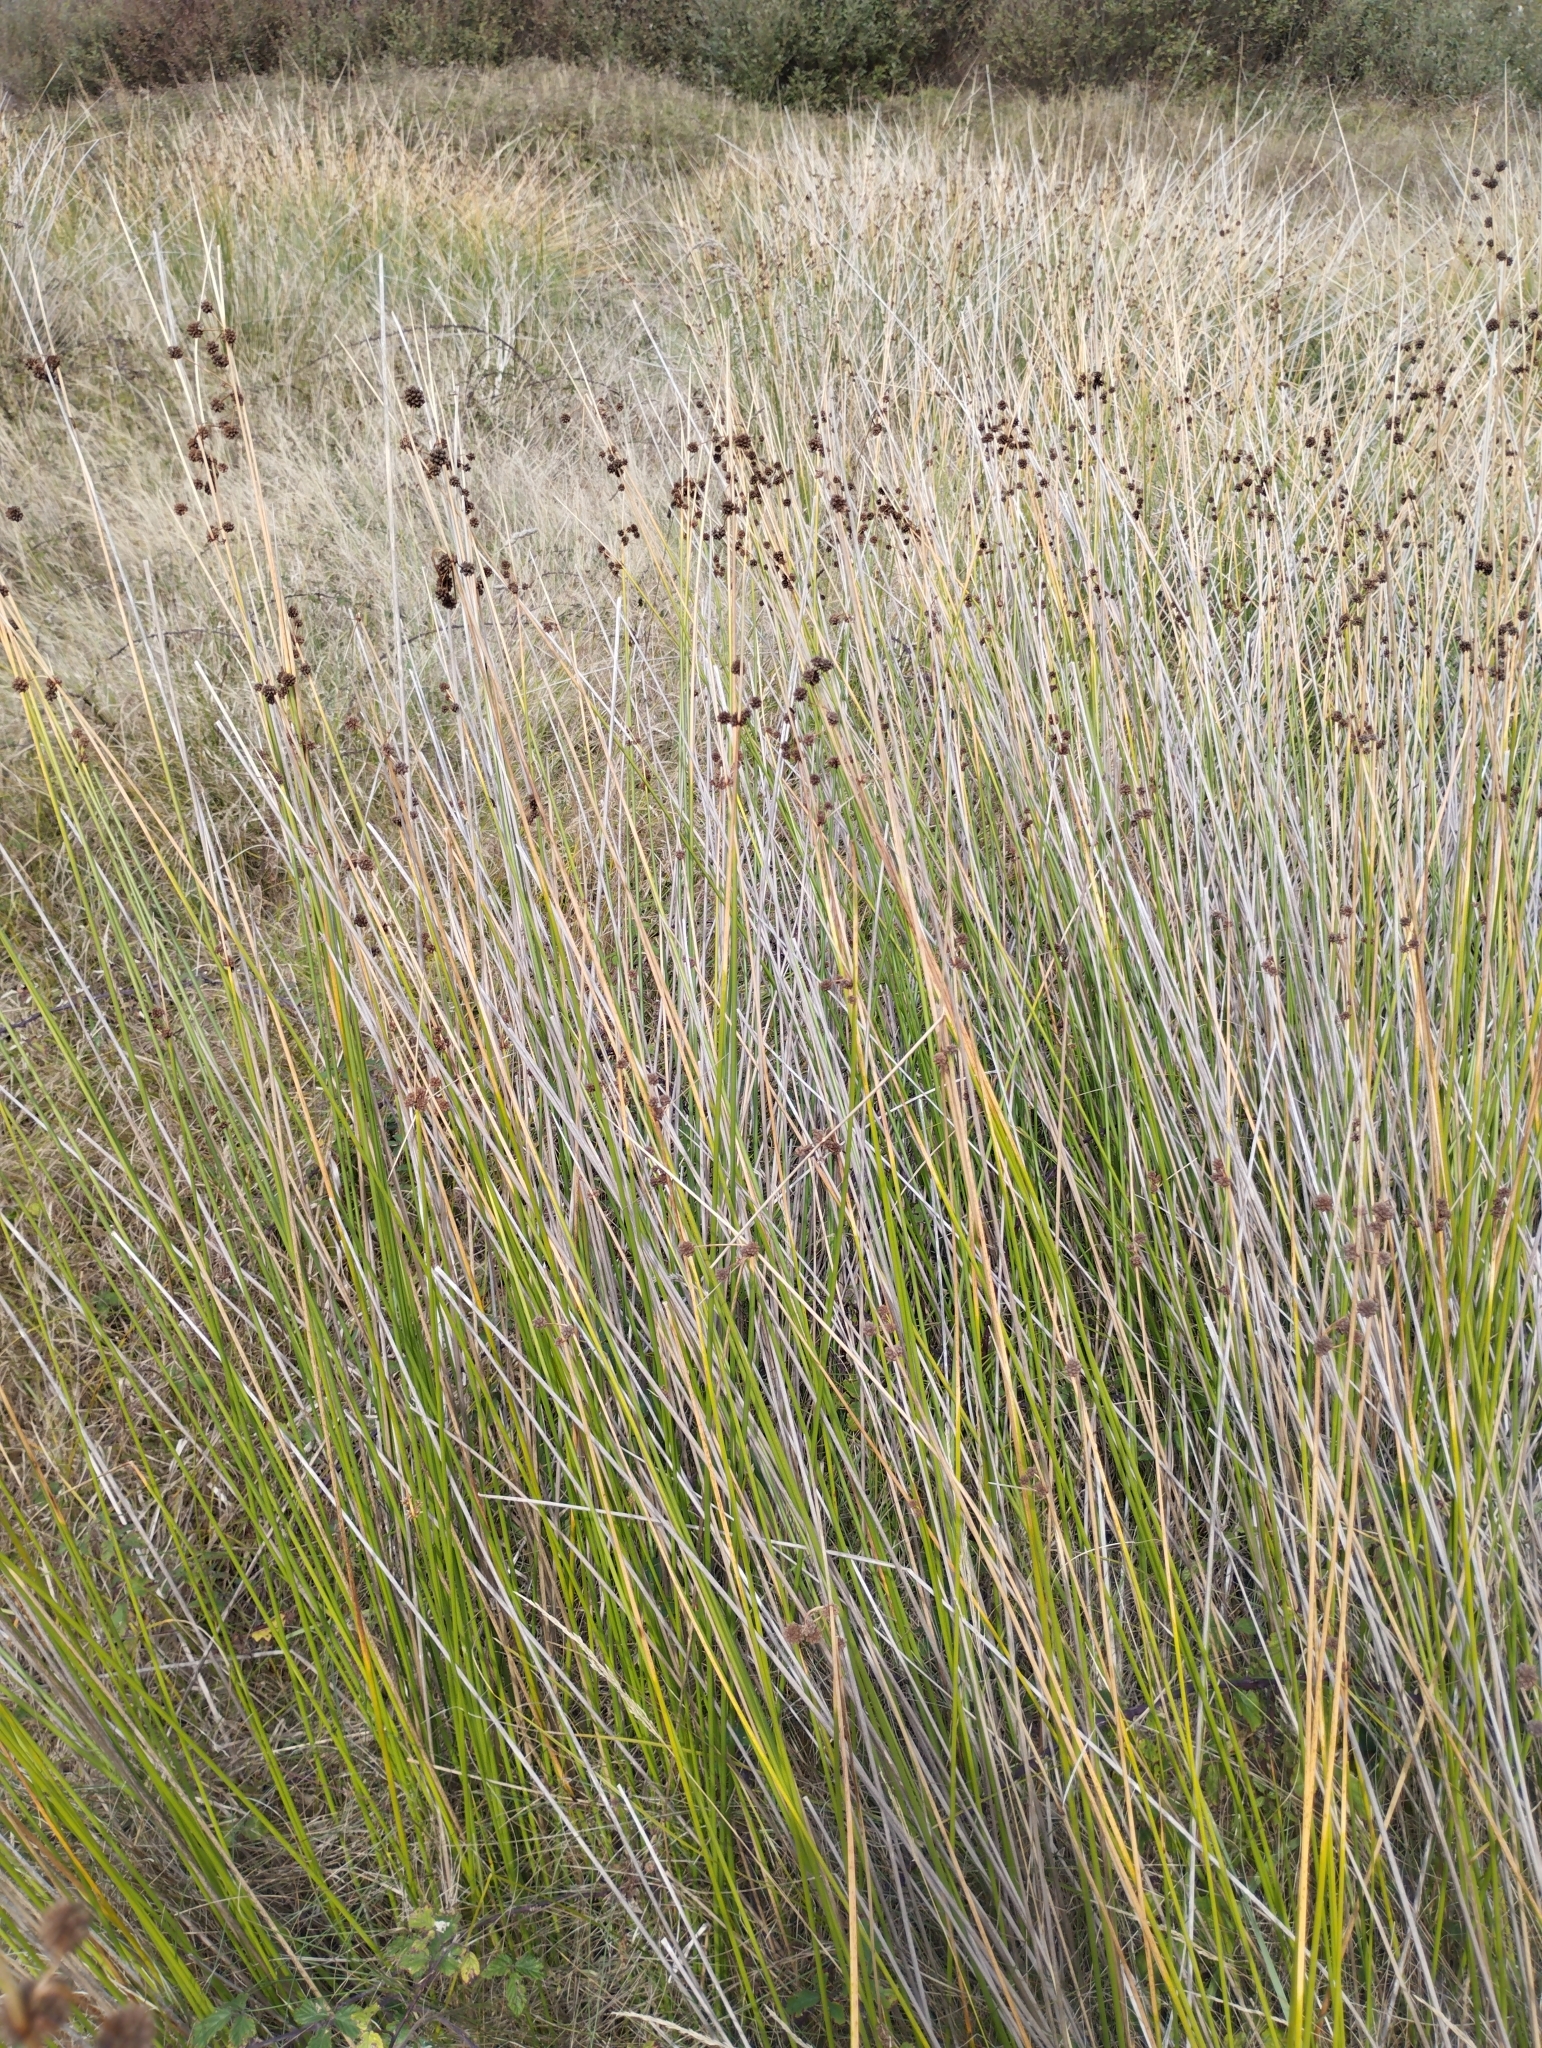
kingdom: Plantae
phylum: Tracheophyta
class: Liliopsida
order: Poales
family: Cyperaceae
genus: Scirpoides
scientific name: Scirpoides holoschoenus
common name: Round-headed club-rush
